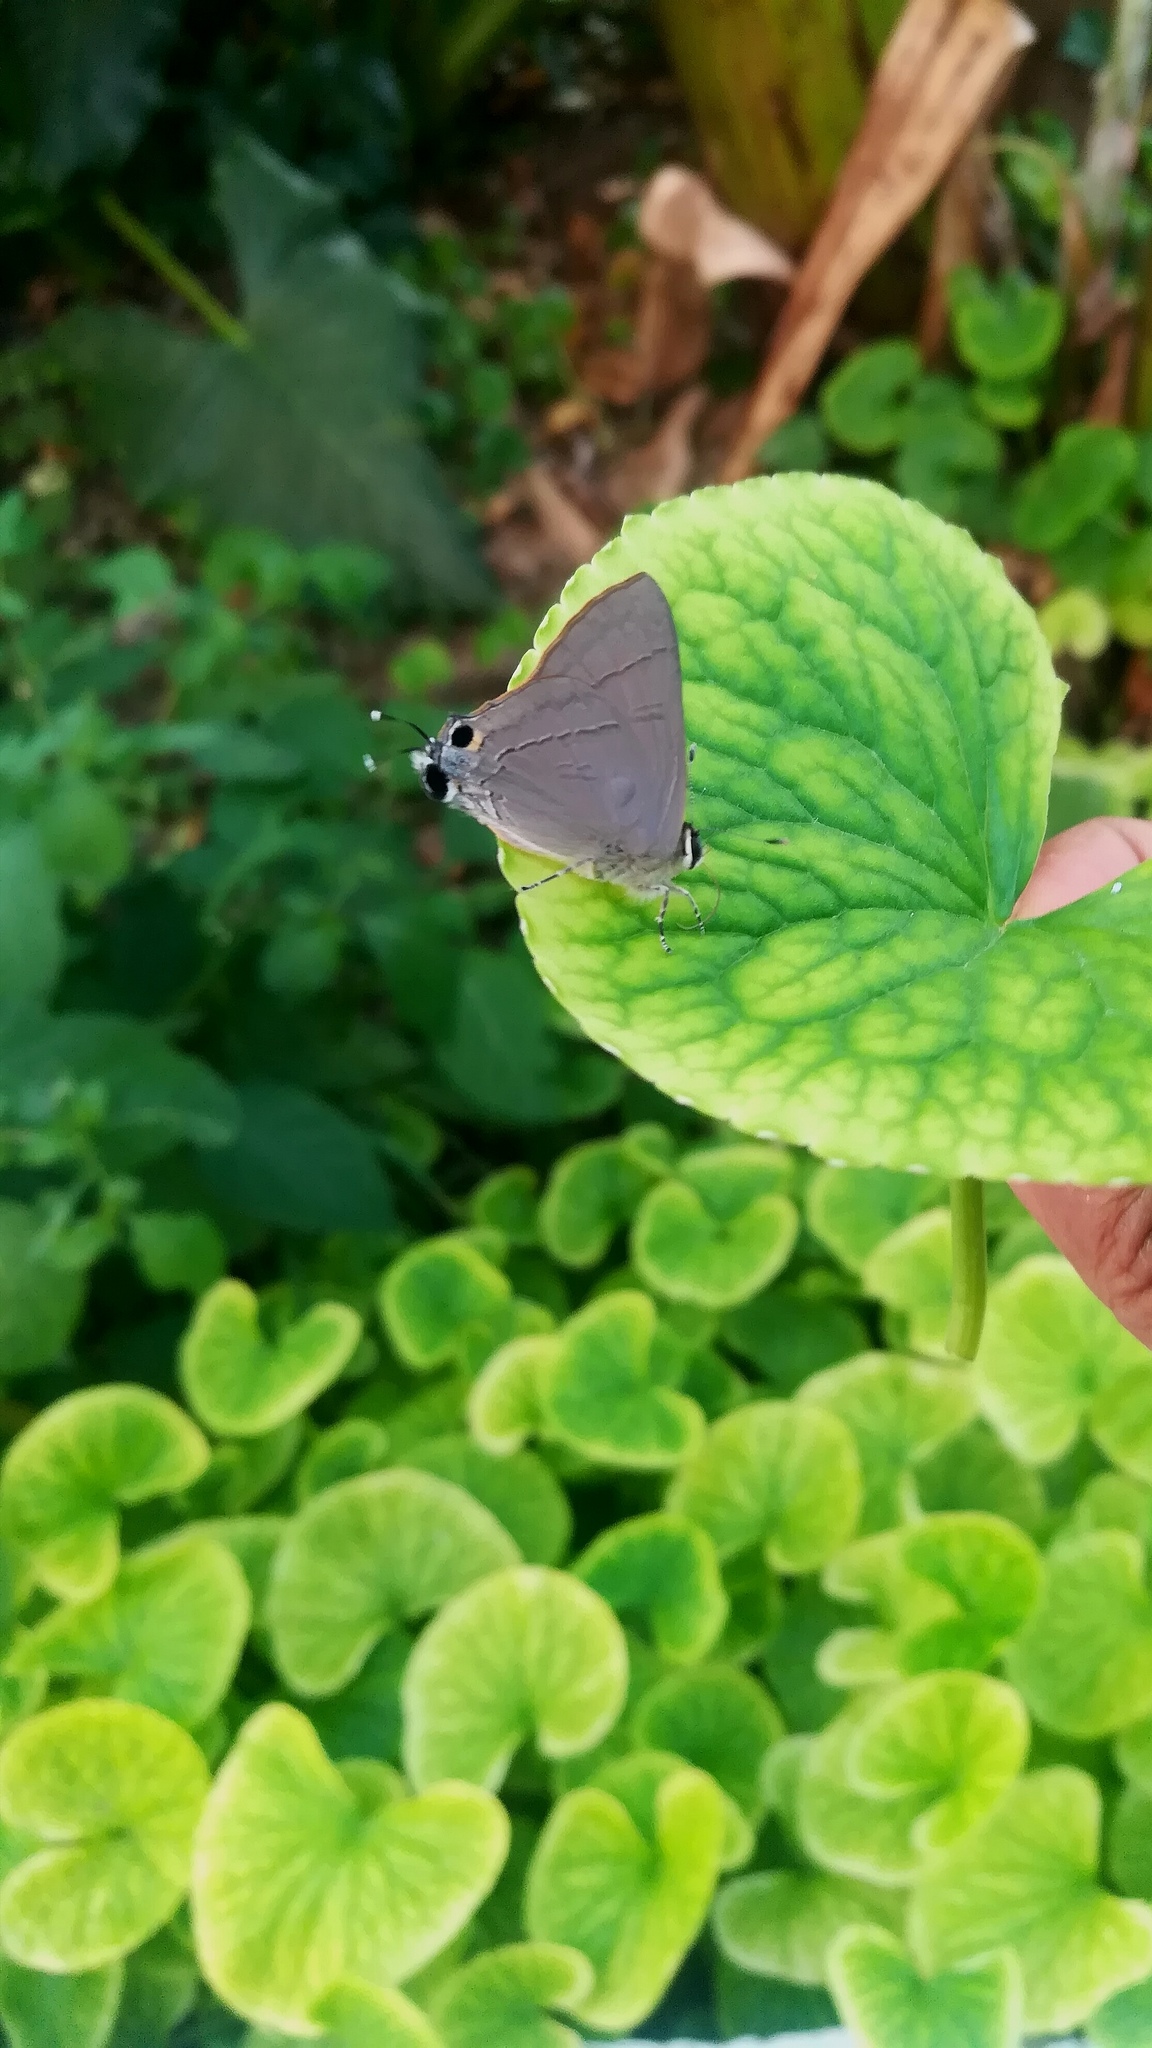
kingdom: Animalia
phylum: Arthropoda
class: Insecta
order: Lepidoptera
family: Lycaenidae
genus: Rapala
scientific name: Rapala iarbus
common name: Common red flash
